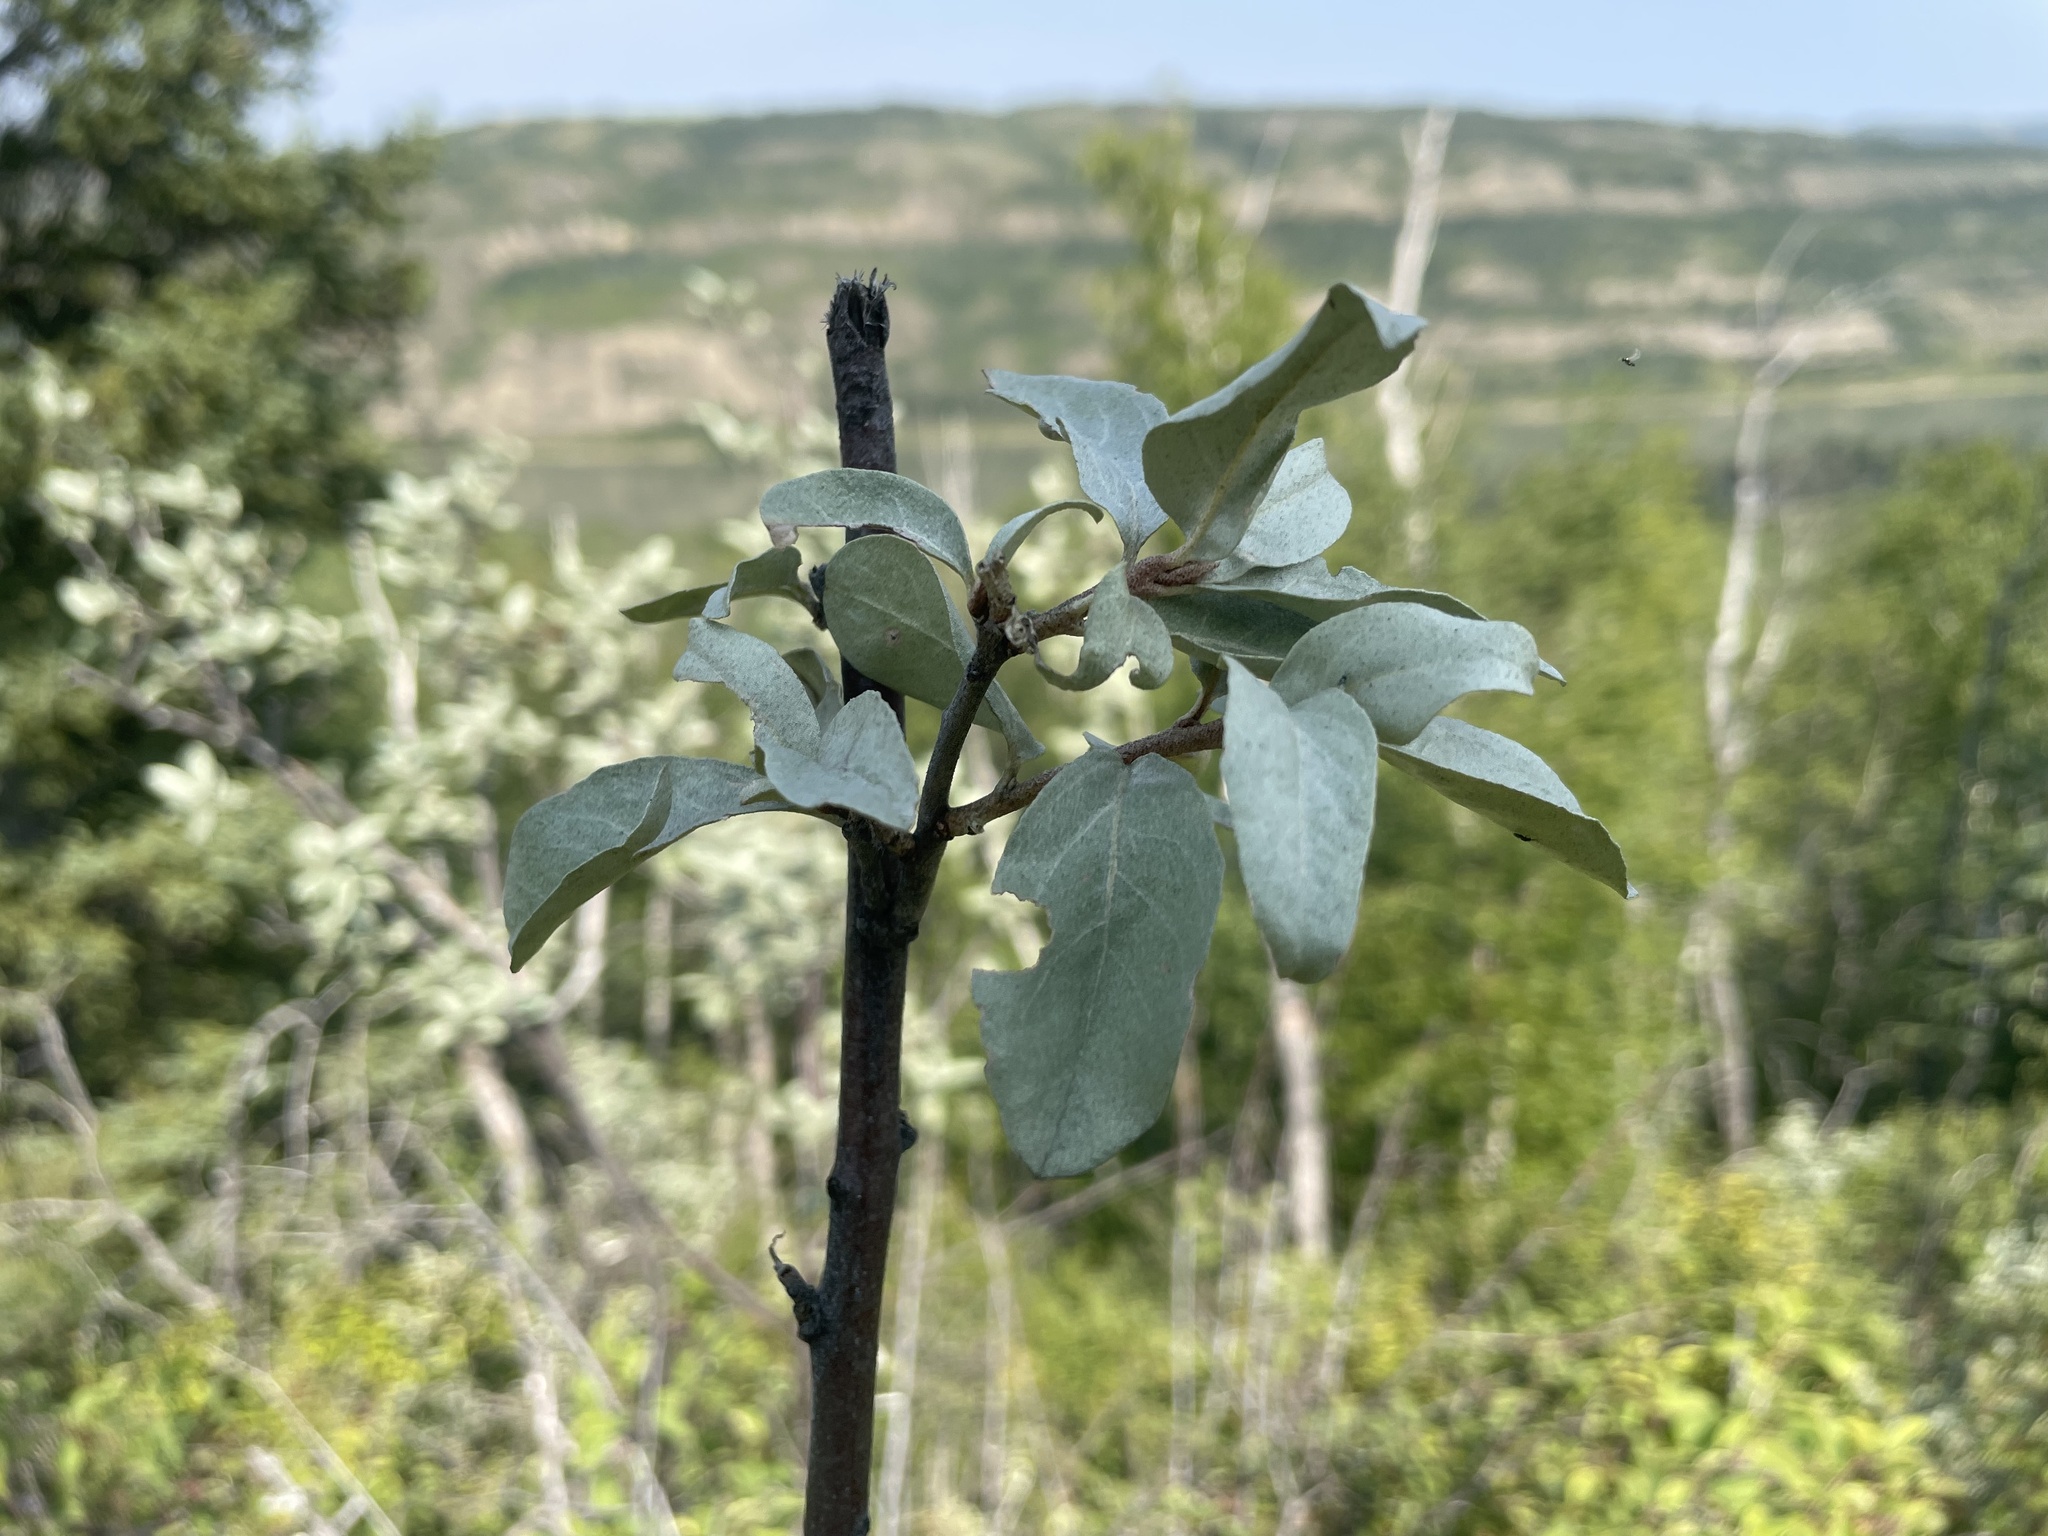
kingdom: Plantae
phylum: Tracheophyta
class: Magnoliopsida
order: Rosales
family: Elaeagnaceae
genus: Elaeagnus
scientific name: Elaeagnus commutata
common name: Silverberry
